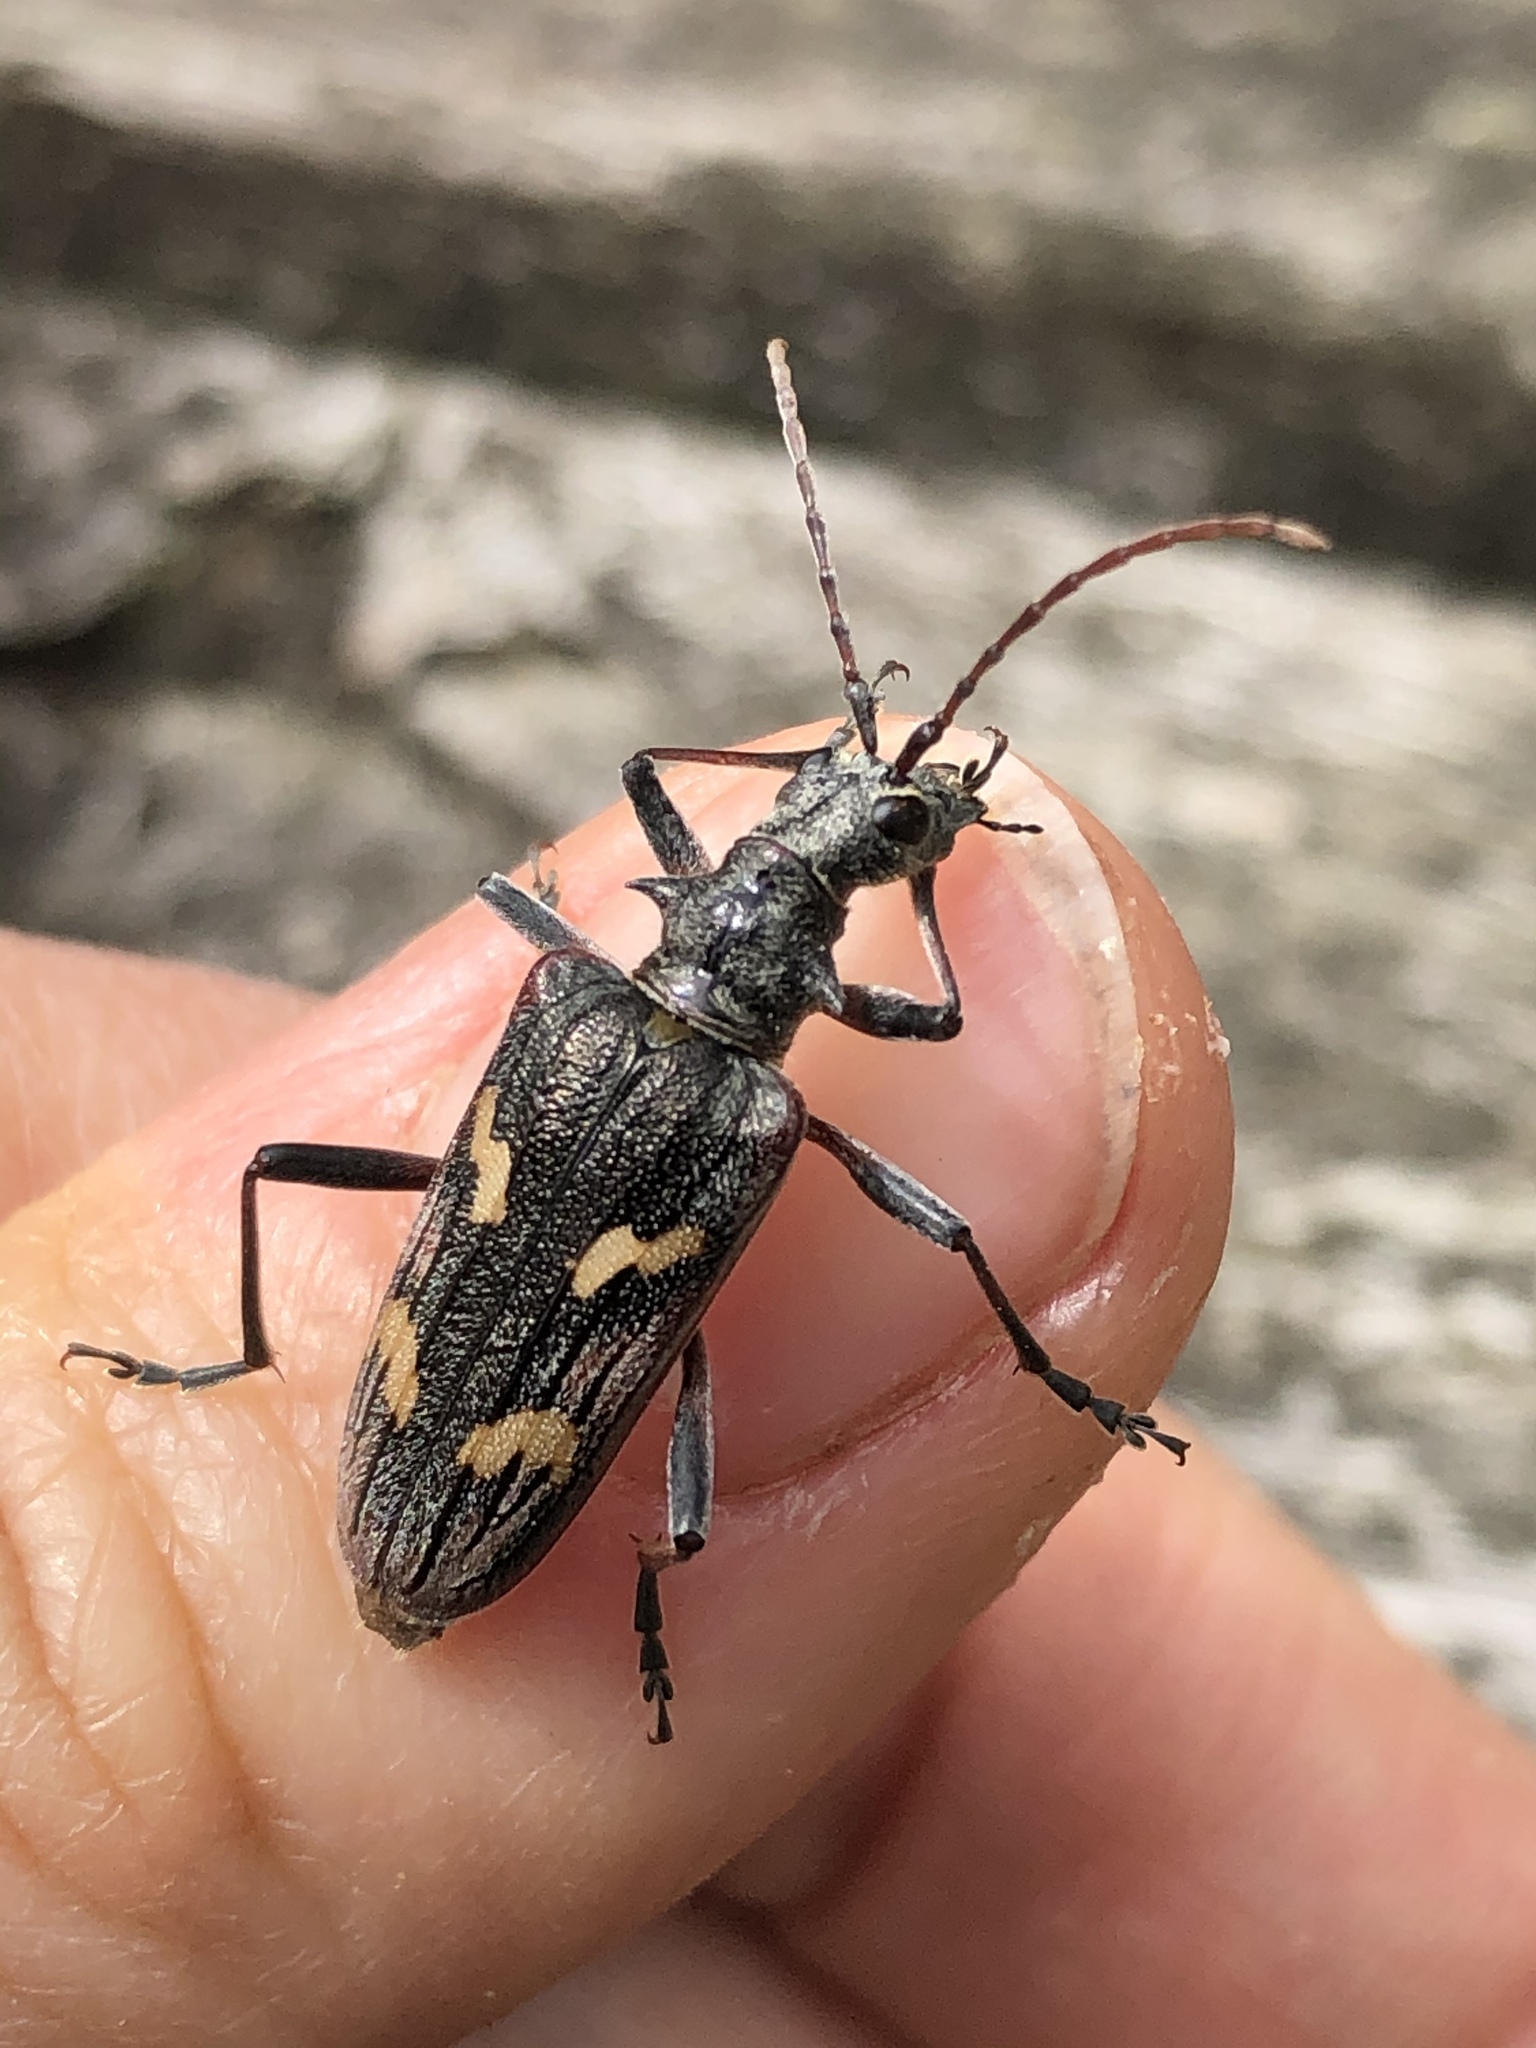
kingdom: Animalia
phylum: Arthropoda
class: Insecta
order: Coleoptera
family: Cerambycidae
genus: Rhagium
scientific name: Rhagium bifasciatum
